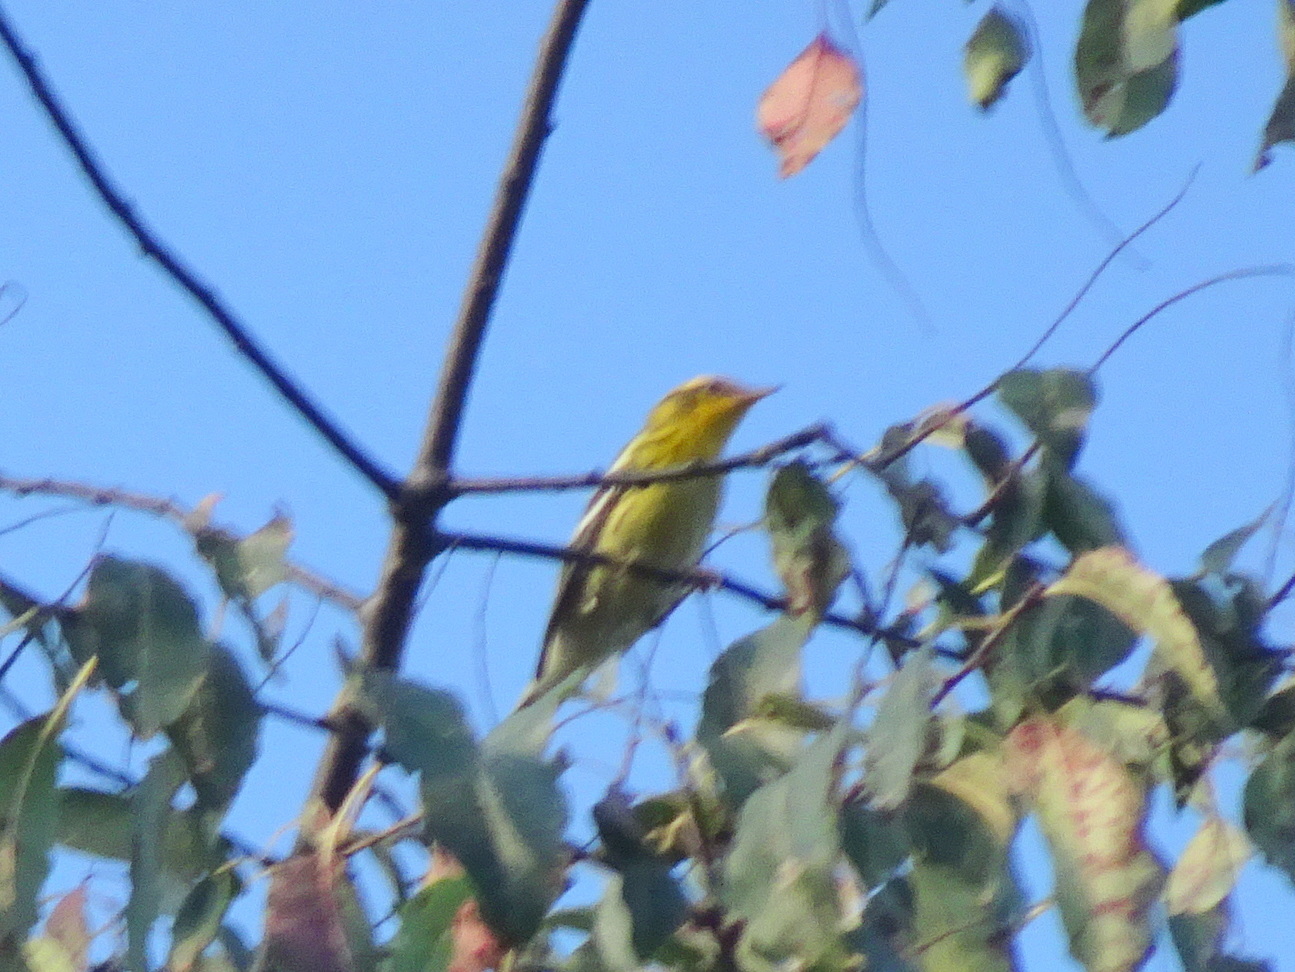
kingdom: Animalia
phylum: Chordata
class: Aves
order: Passeriformes
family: Parulidae
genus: Setophaga
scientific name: Setophaga fusca
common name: Blackburnian warbler
